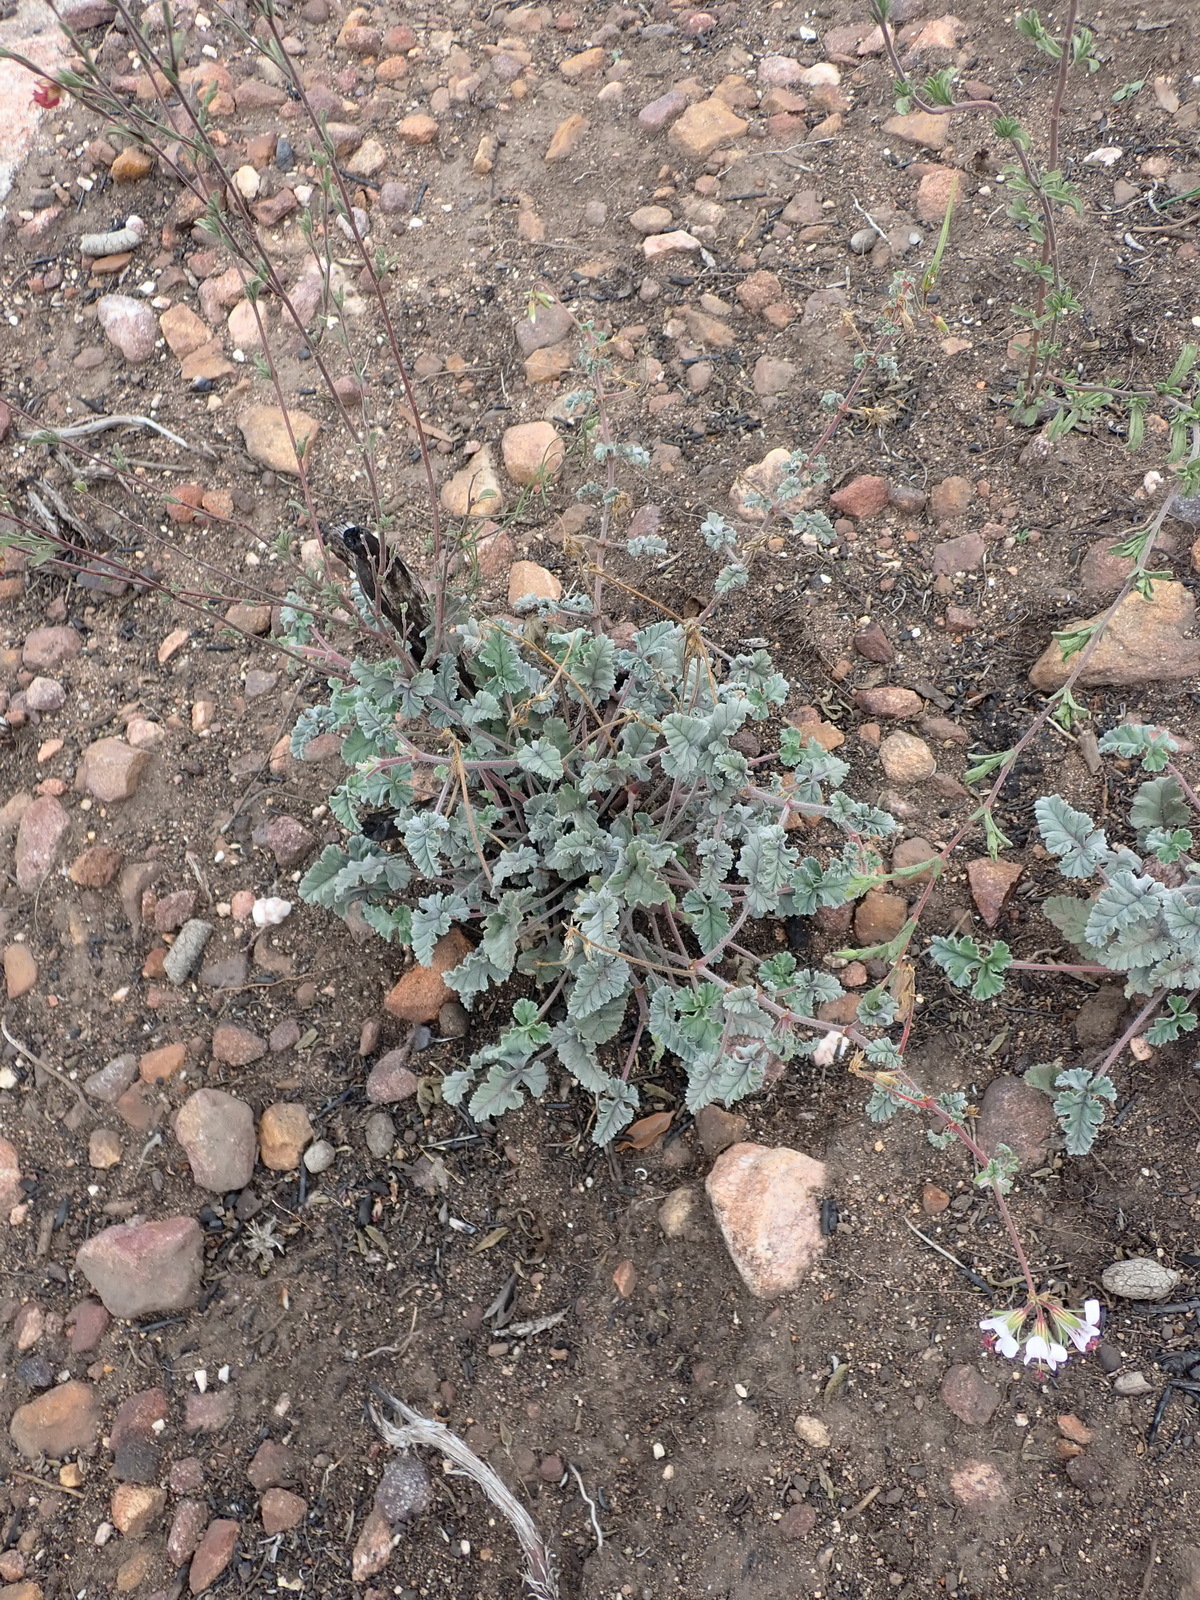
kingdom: Plantae
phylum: Tracheophyta
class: Magnoliopsida
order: Geraniales
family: Geraniaceae
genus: Pelargonium
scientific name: Pelargonium candicans
